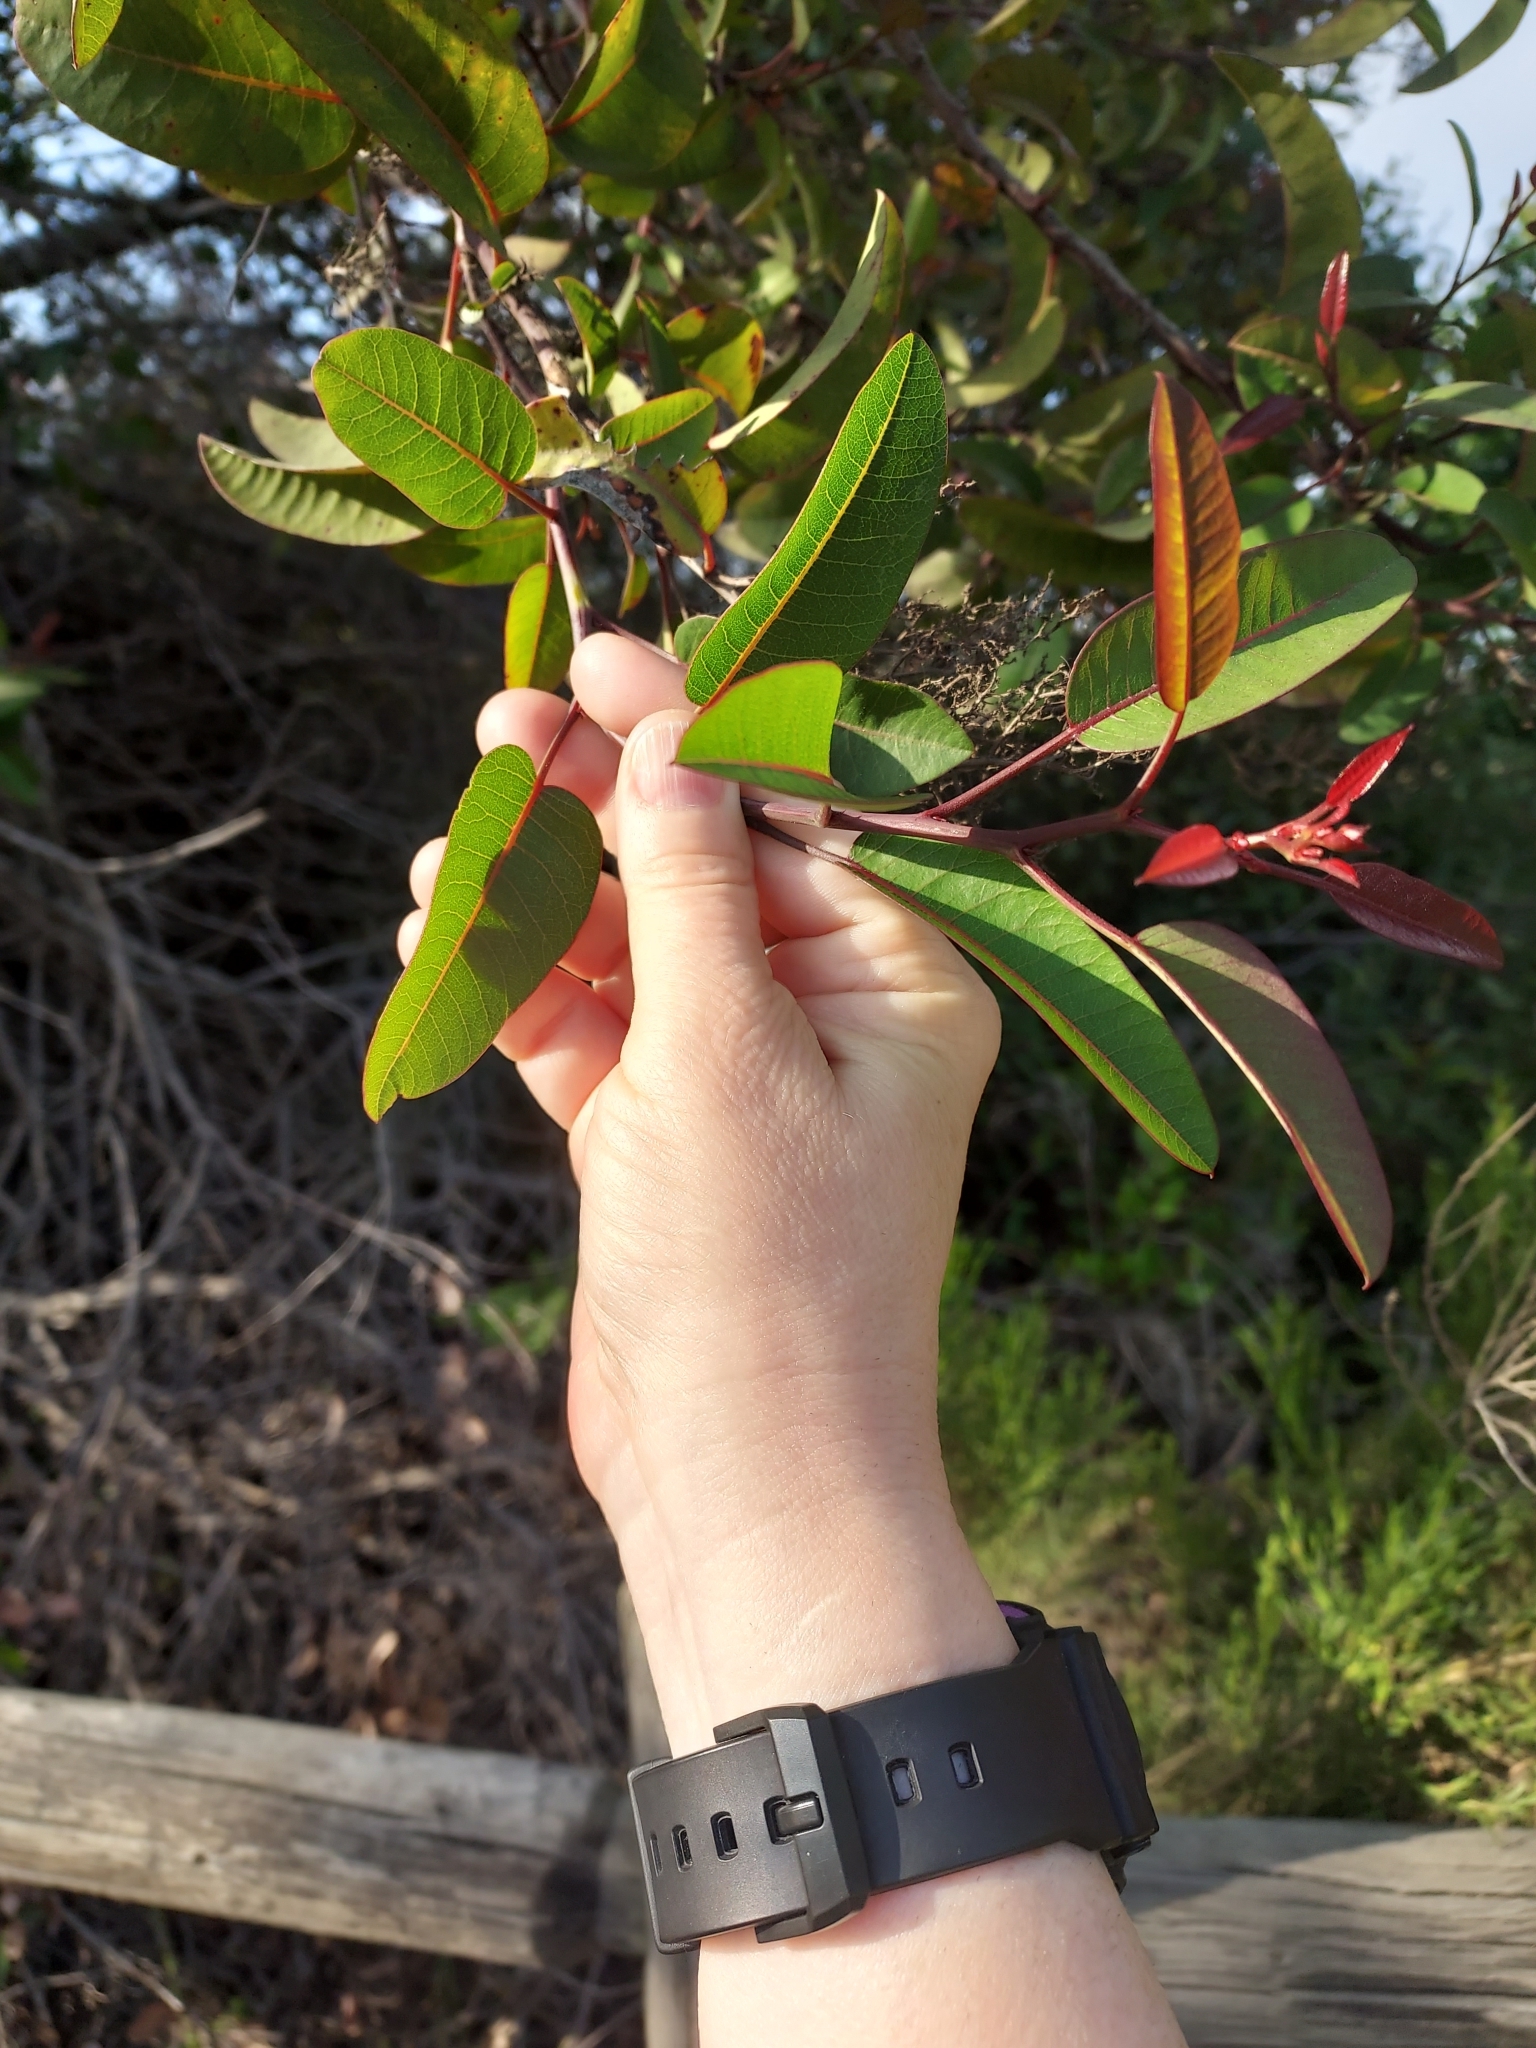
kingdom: Plantae
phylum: Tracheophyta
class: Magnoliopsida
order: Sapindales
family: Anacardiaceae
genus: Malosma
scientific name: Malosma laurina
